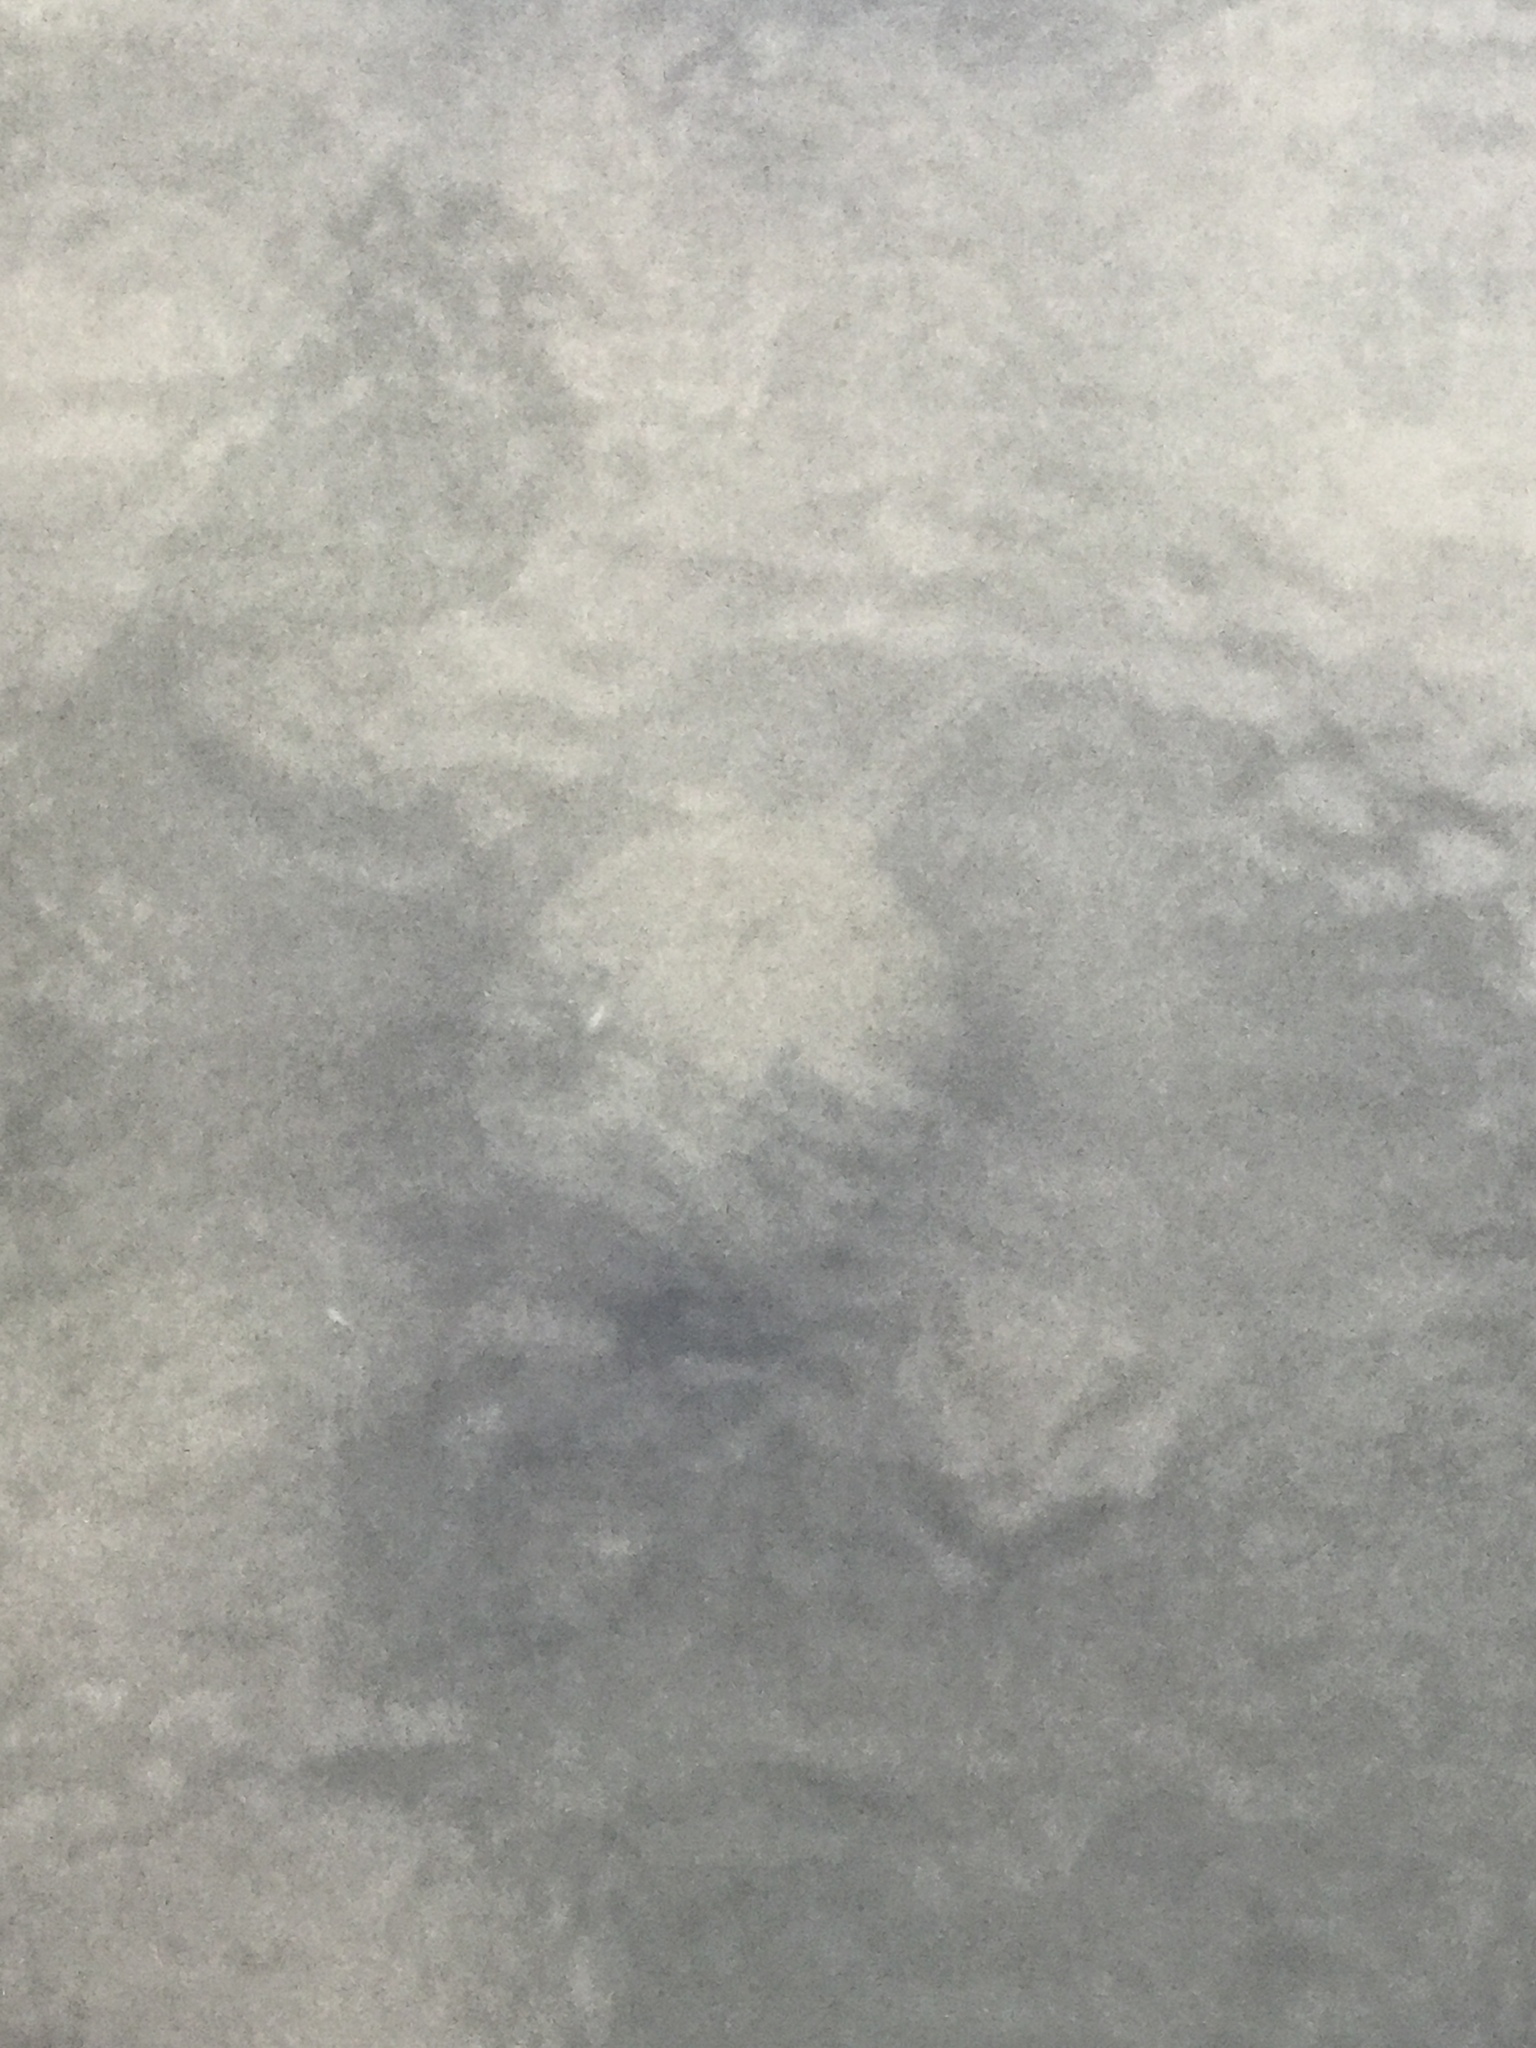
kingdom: Animalia
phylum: Chordata
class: Testudines
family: Chelydridae
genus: Chelydra
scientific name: Chelydra serpentina
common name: Common snapping turtle
